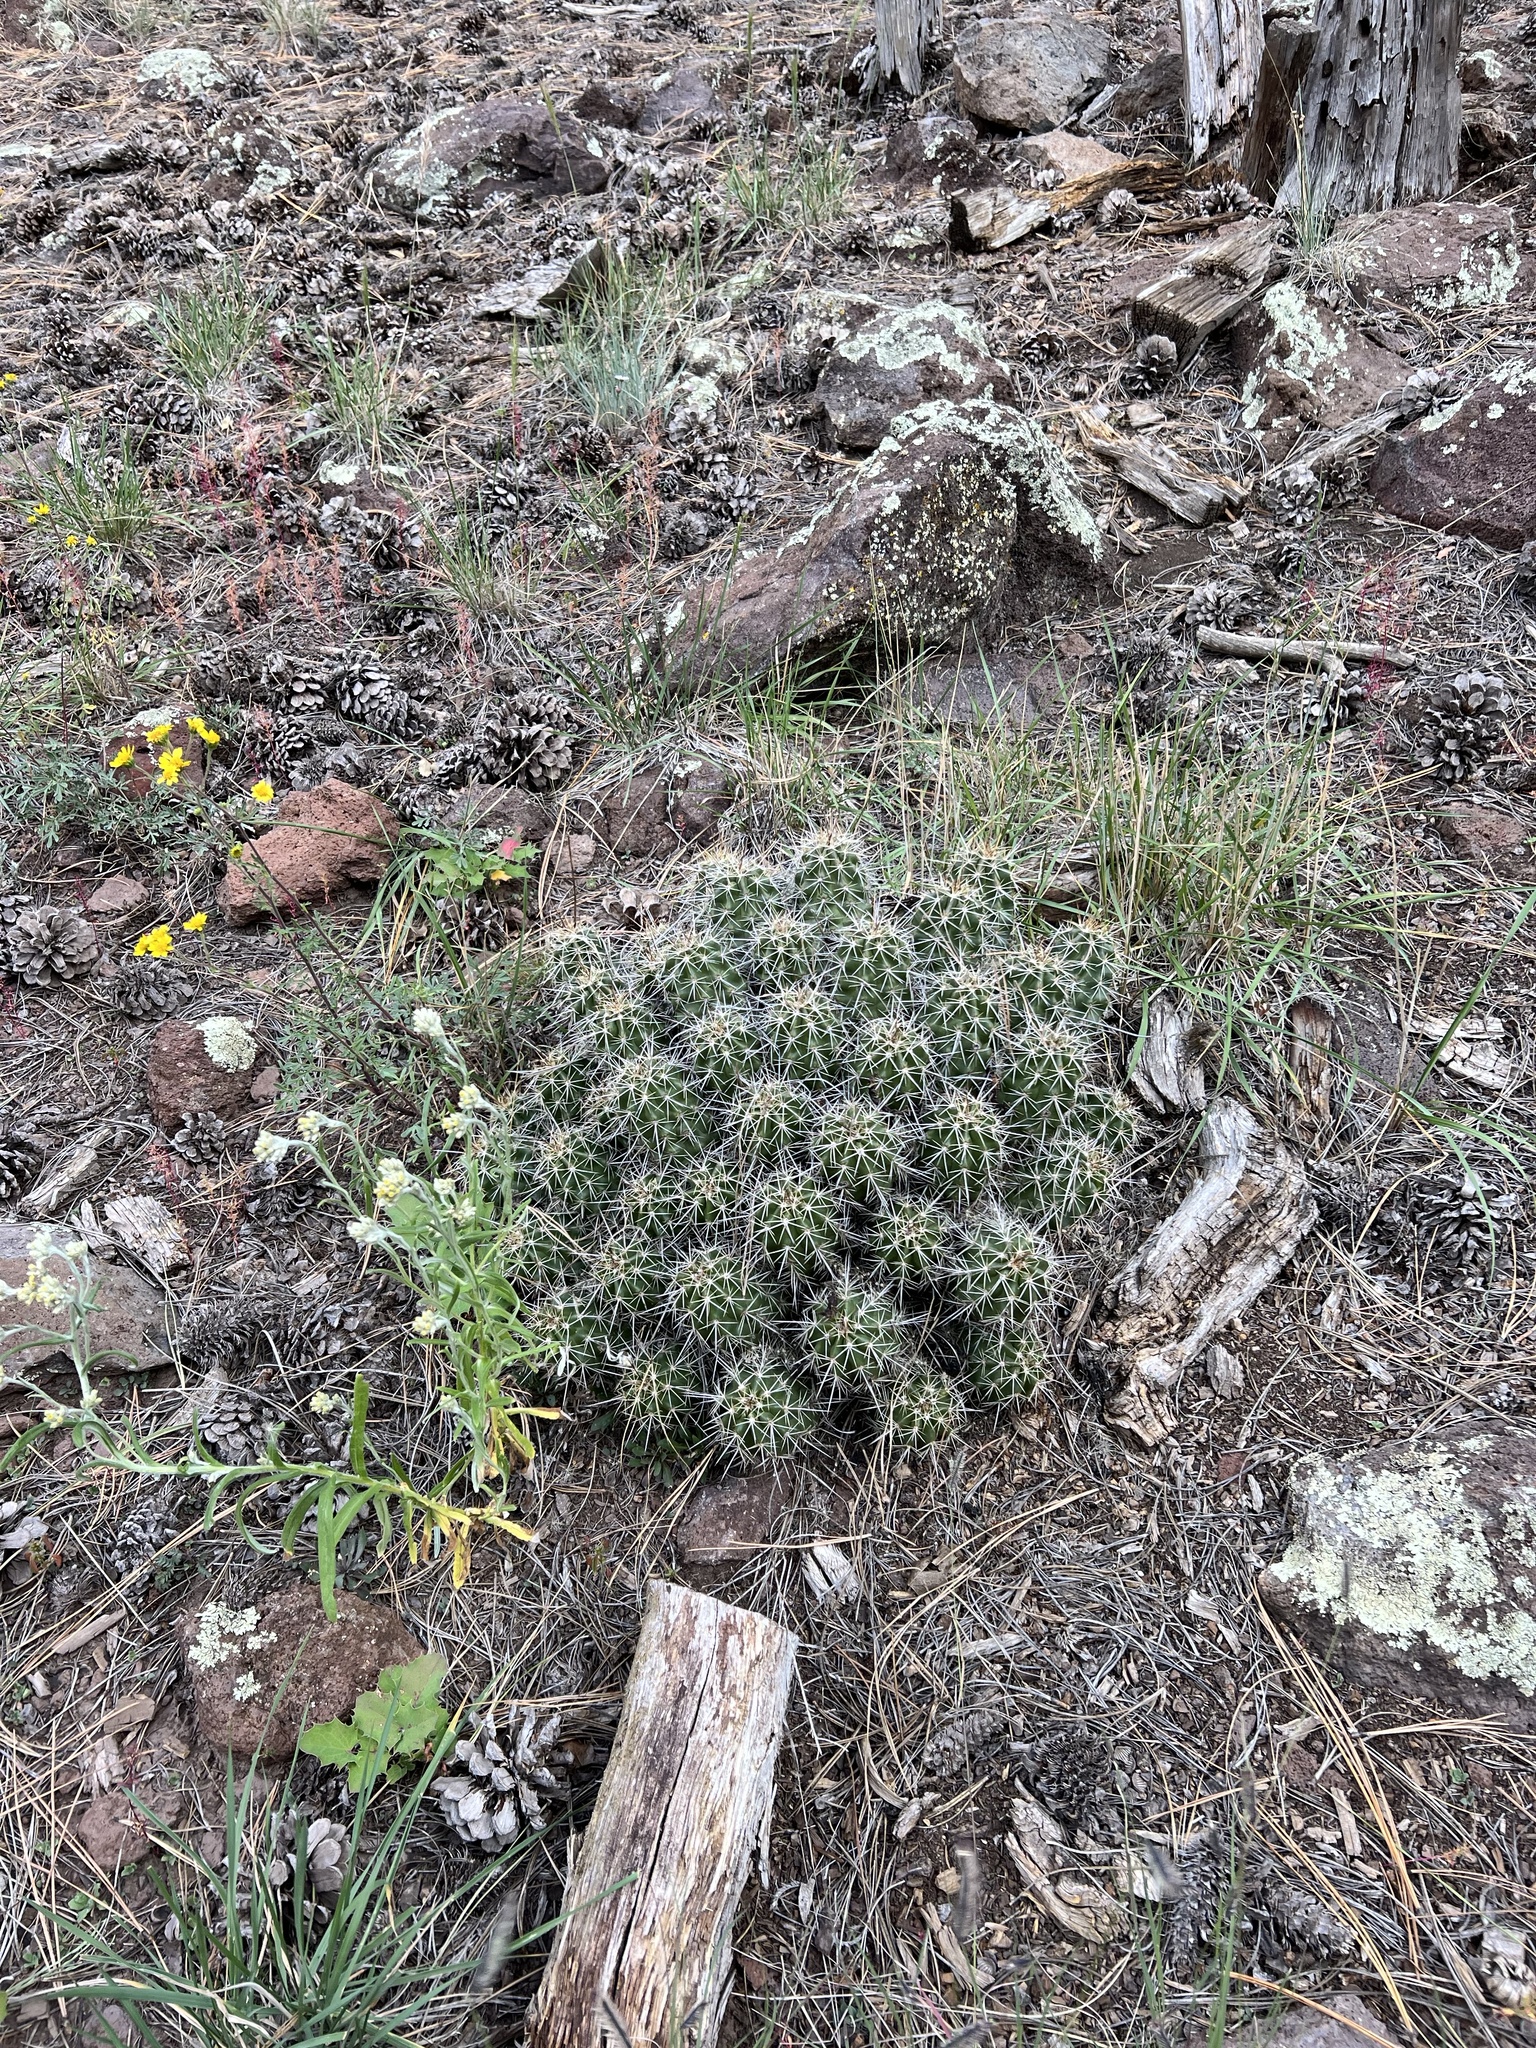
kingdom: Plantae
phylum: Tracheophyta
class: Magnoliopsida
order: Caryophyllales
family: Cactaceae
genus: Echinocereus
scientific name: Echinocereus bakeri
